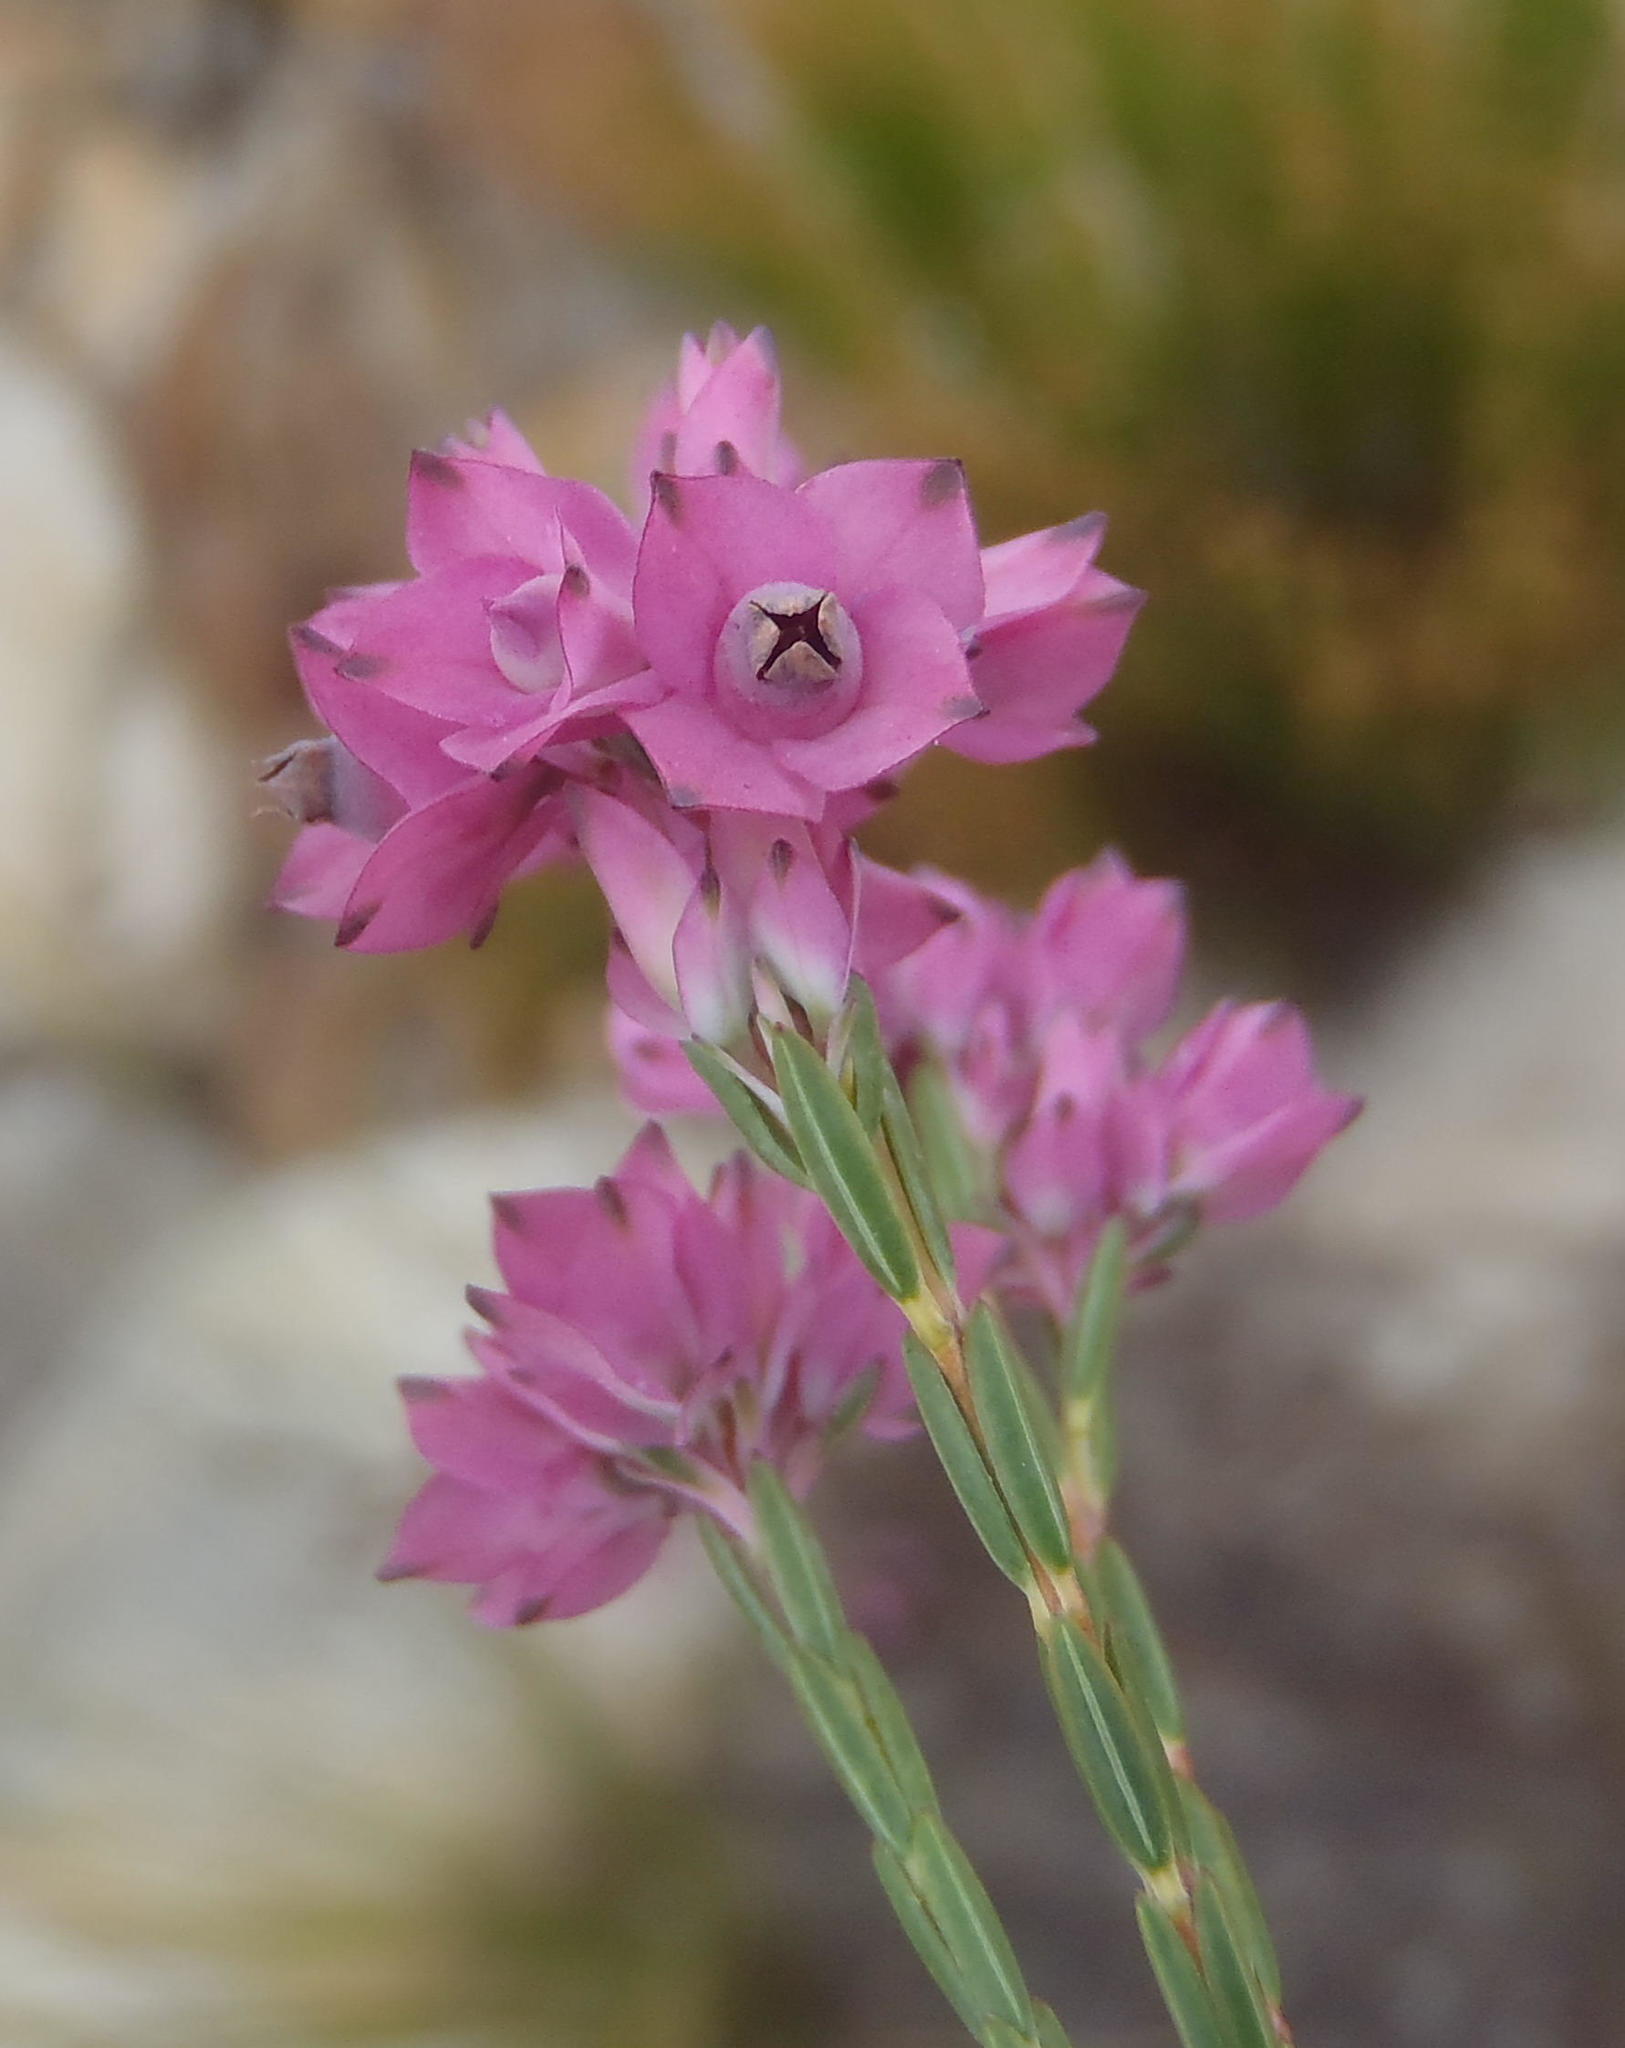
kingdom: Plantae
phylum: Tracheophyta
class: Magnoliopsida
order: Ericales
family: Ericaceae
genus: Erica
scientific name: Erica corifolia
